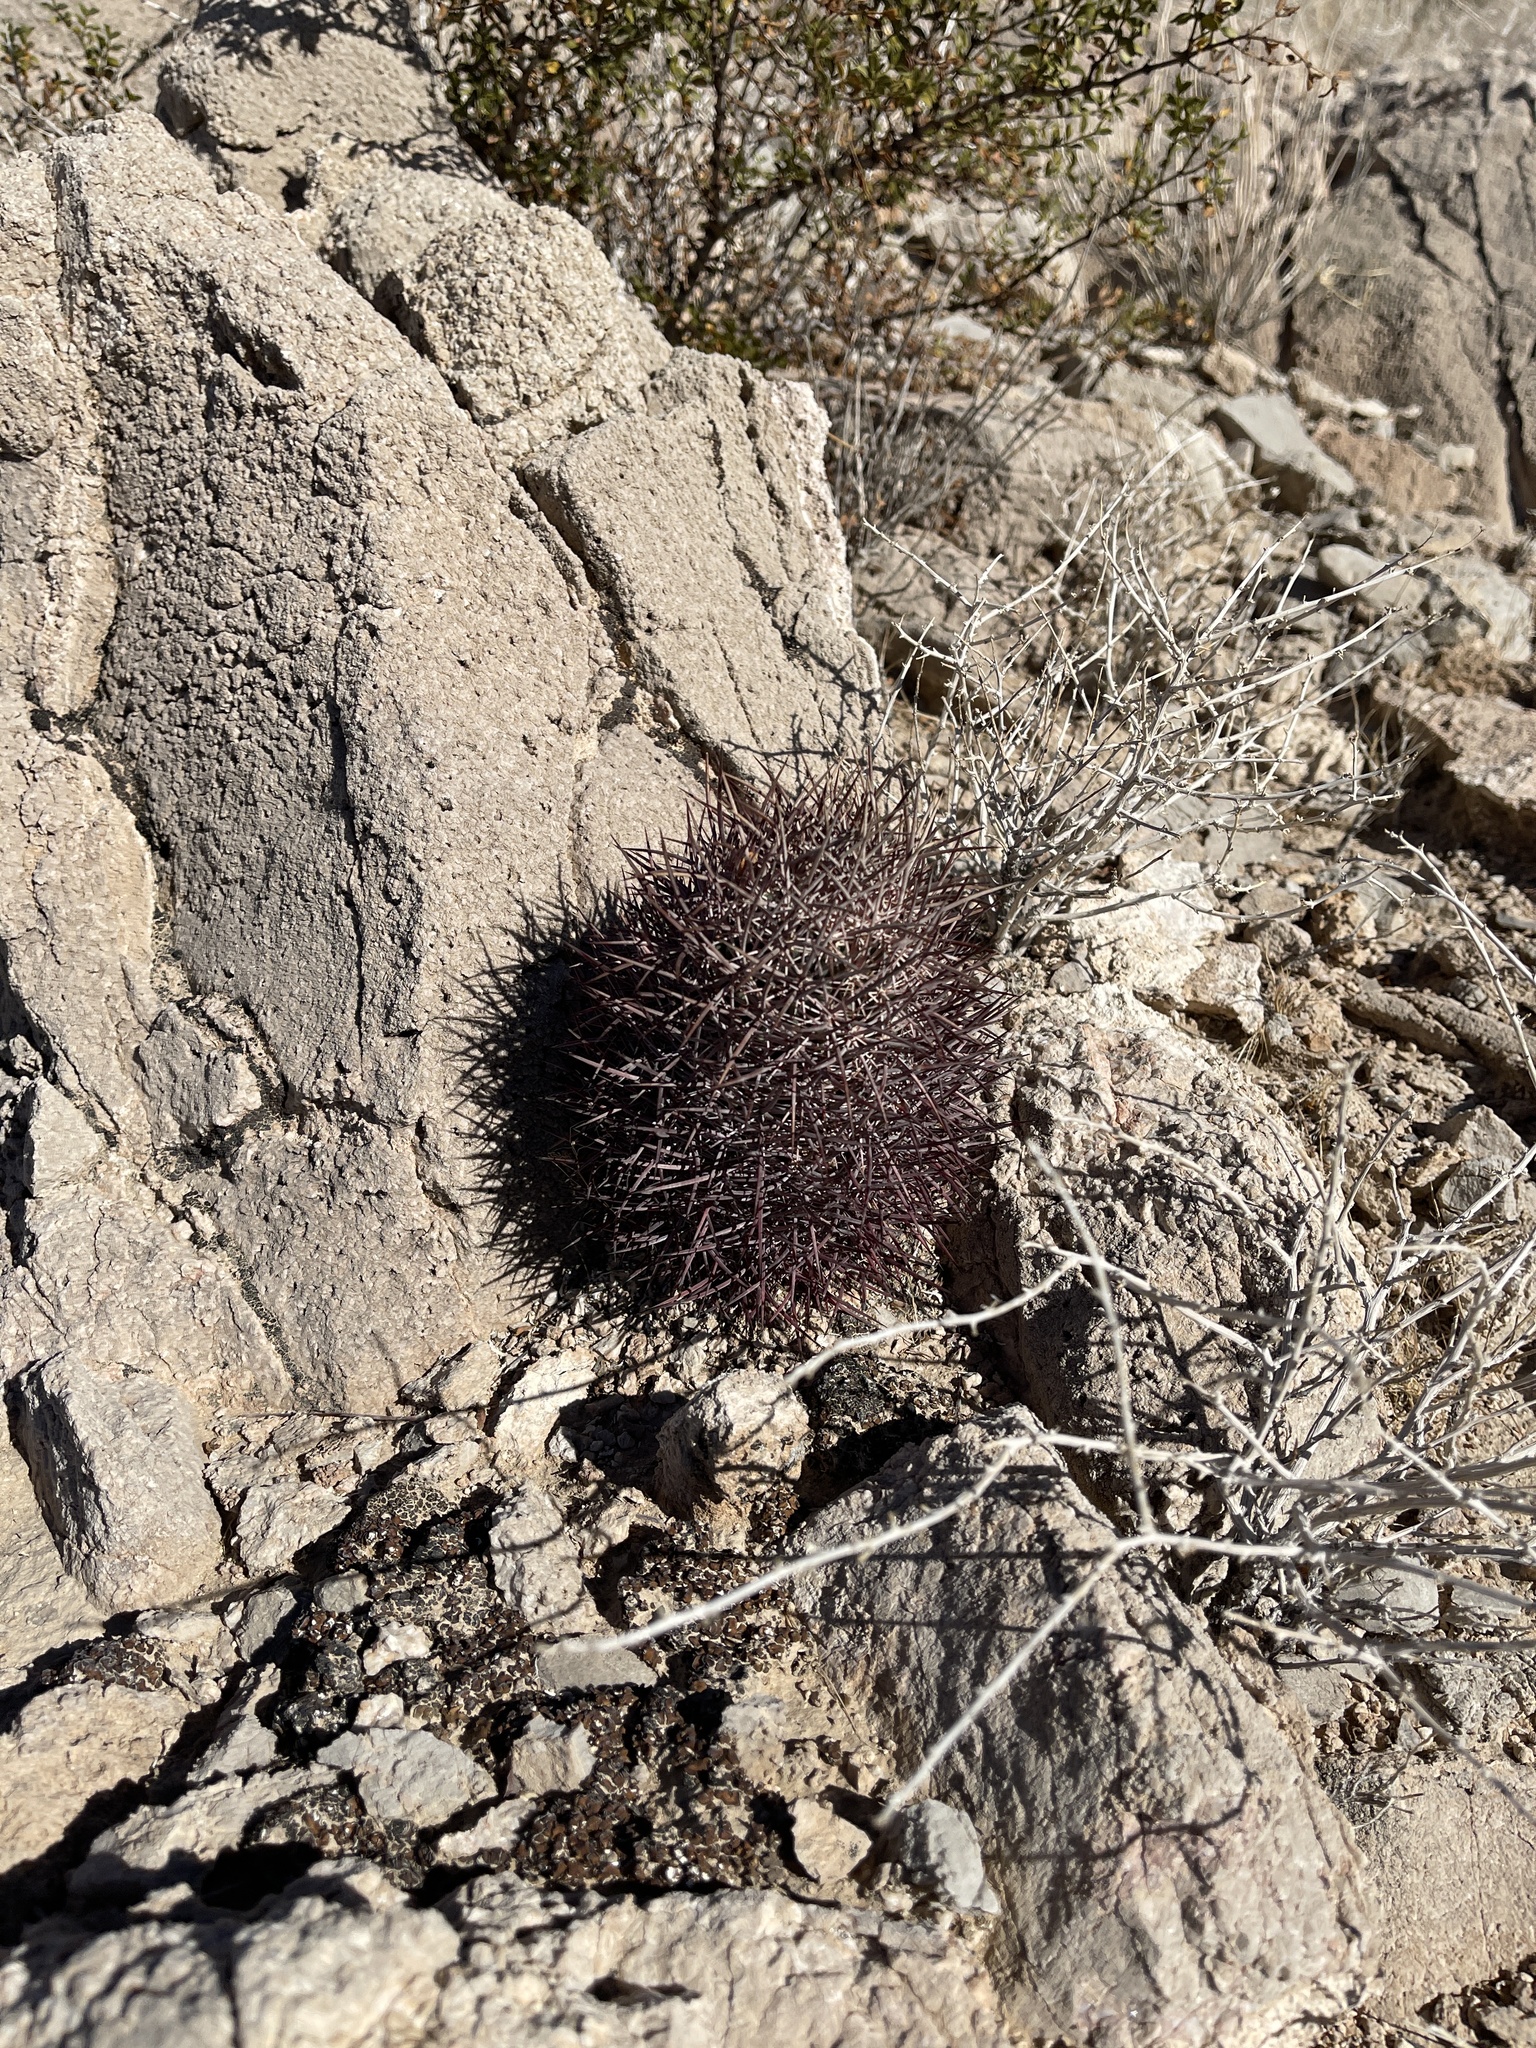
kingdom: Plantae
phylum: Tracheophyta
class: Magnoliopsida
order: Caryophyllales
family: Cactaceae
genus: Sclerocactus
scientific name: Sclerocactus johnsonii
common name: Eight-spine fishhook cactus
